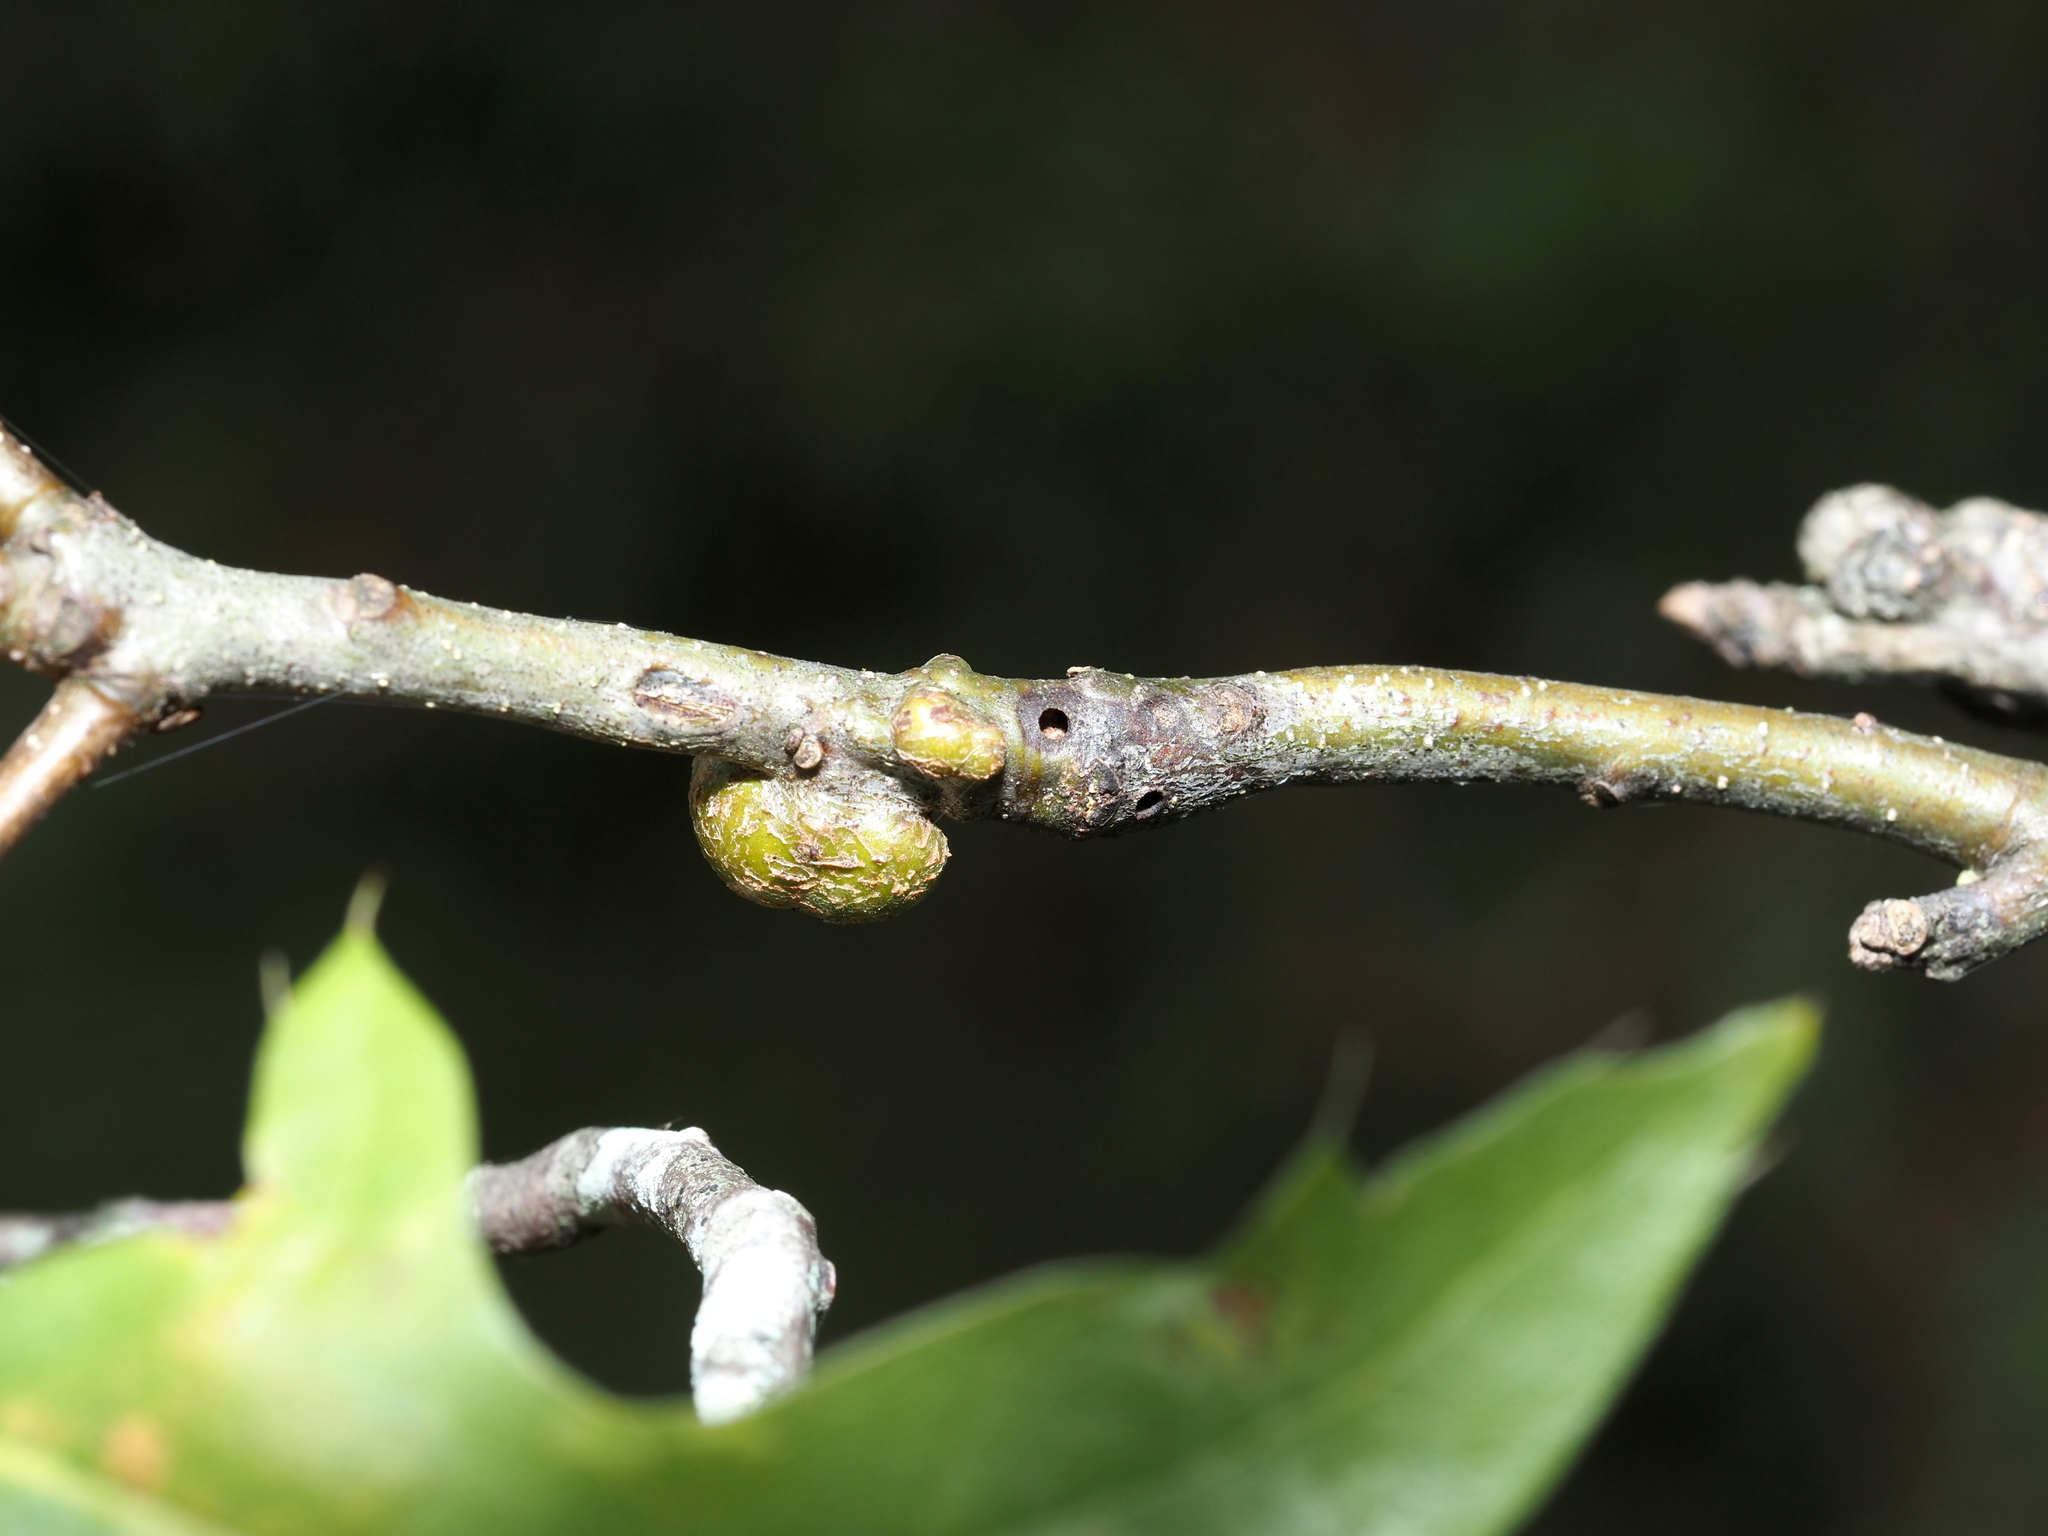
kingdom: Animalia
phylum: Arthropoda
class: Insecta
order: Hymenoptera
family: Cynipidae
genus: Callirhytis
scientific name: Callirhytis
